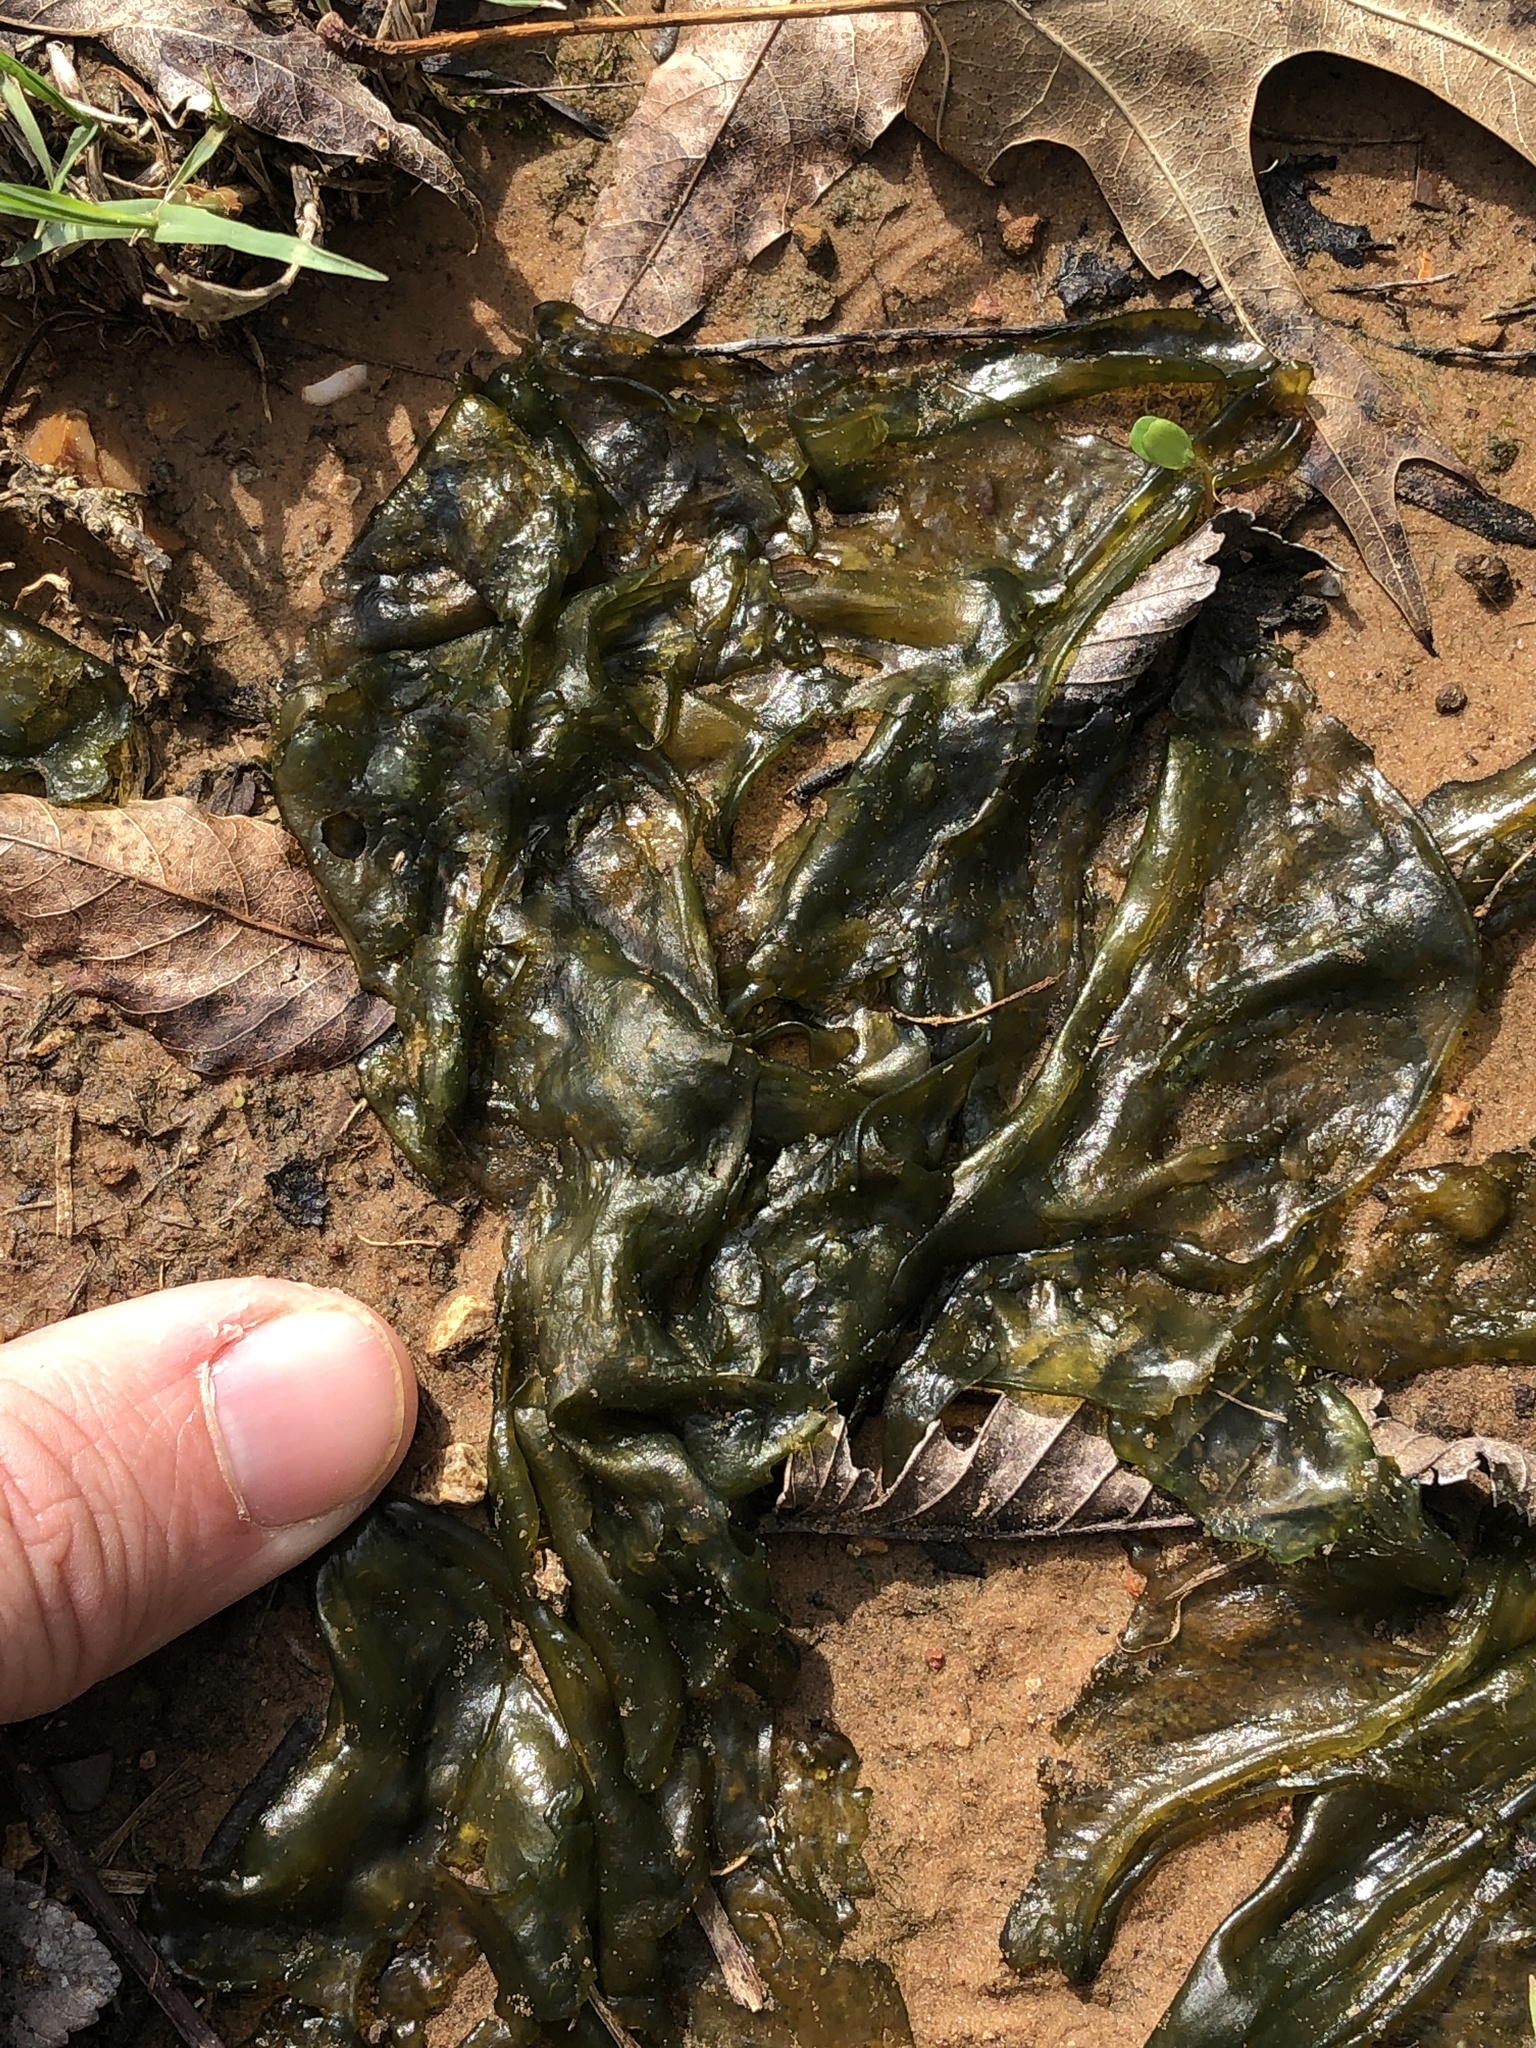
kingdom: Bacteria
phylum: Cyanobacteria
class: Cyanobacteriia
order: Cyanobacteriales
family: Nostocaceae
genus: Nostoc
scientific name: Nostoc commune
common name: Star jelly
